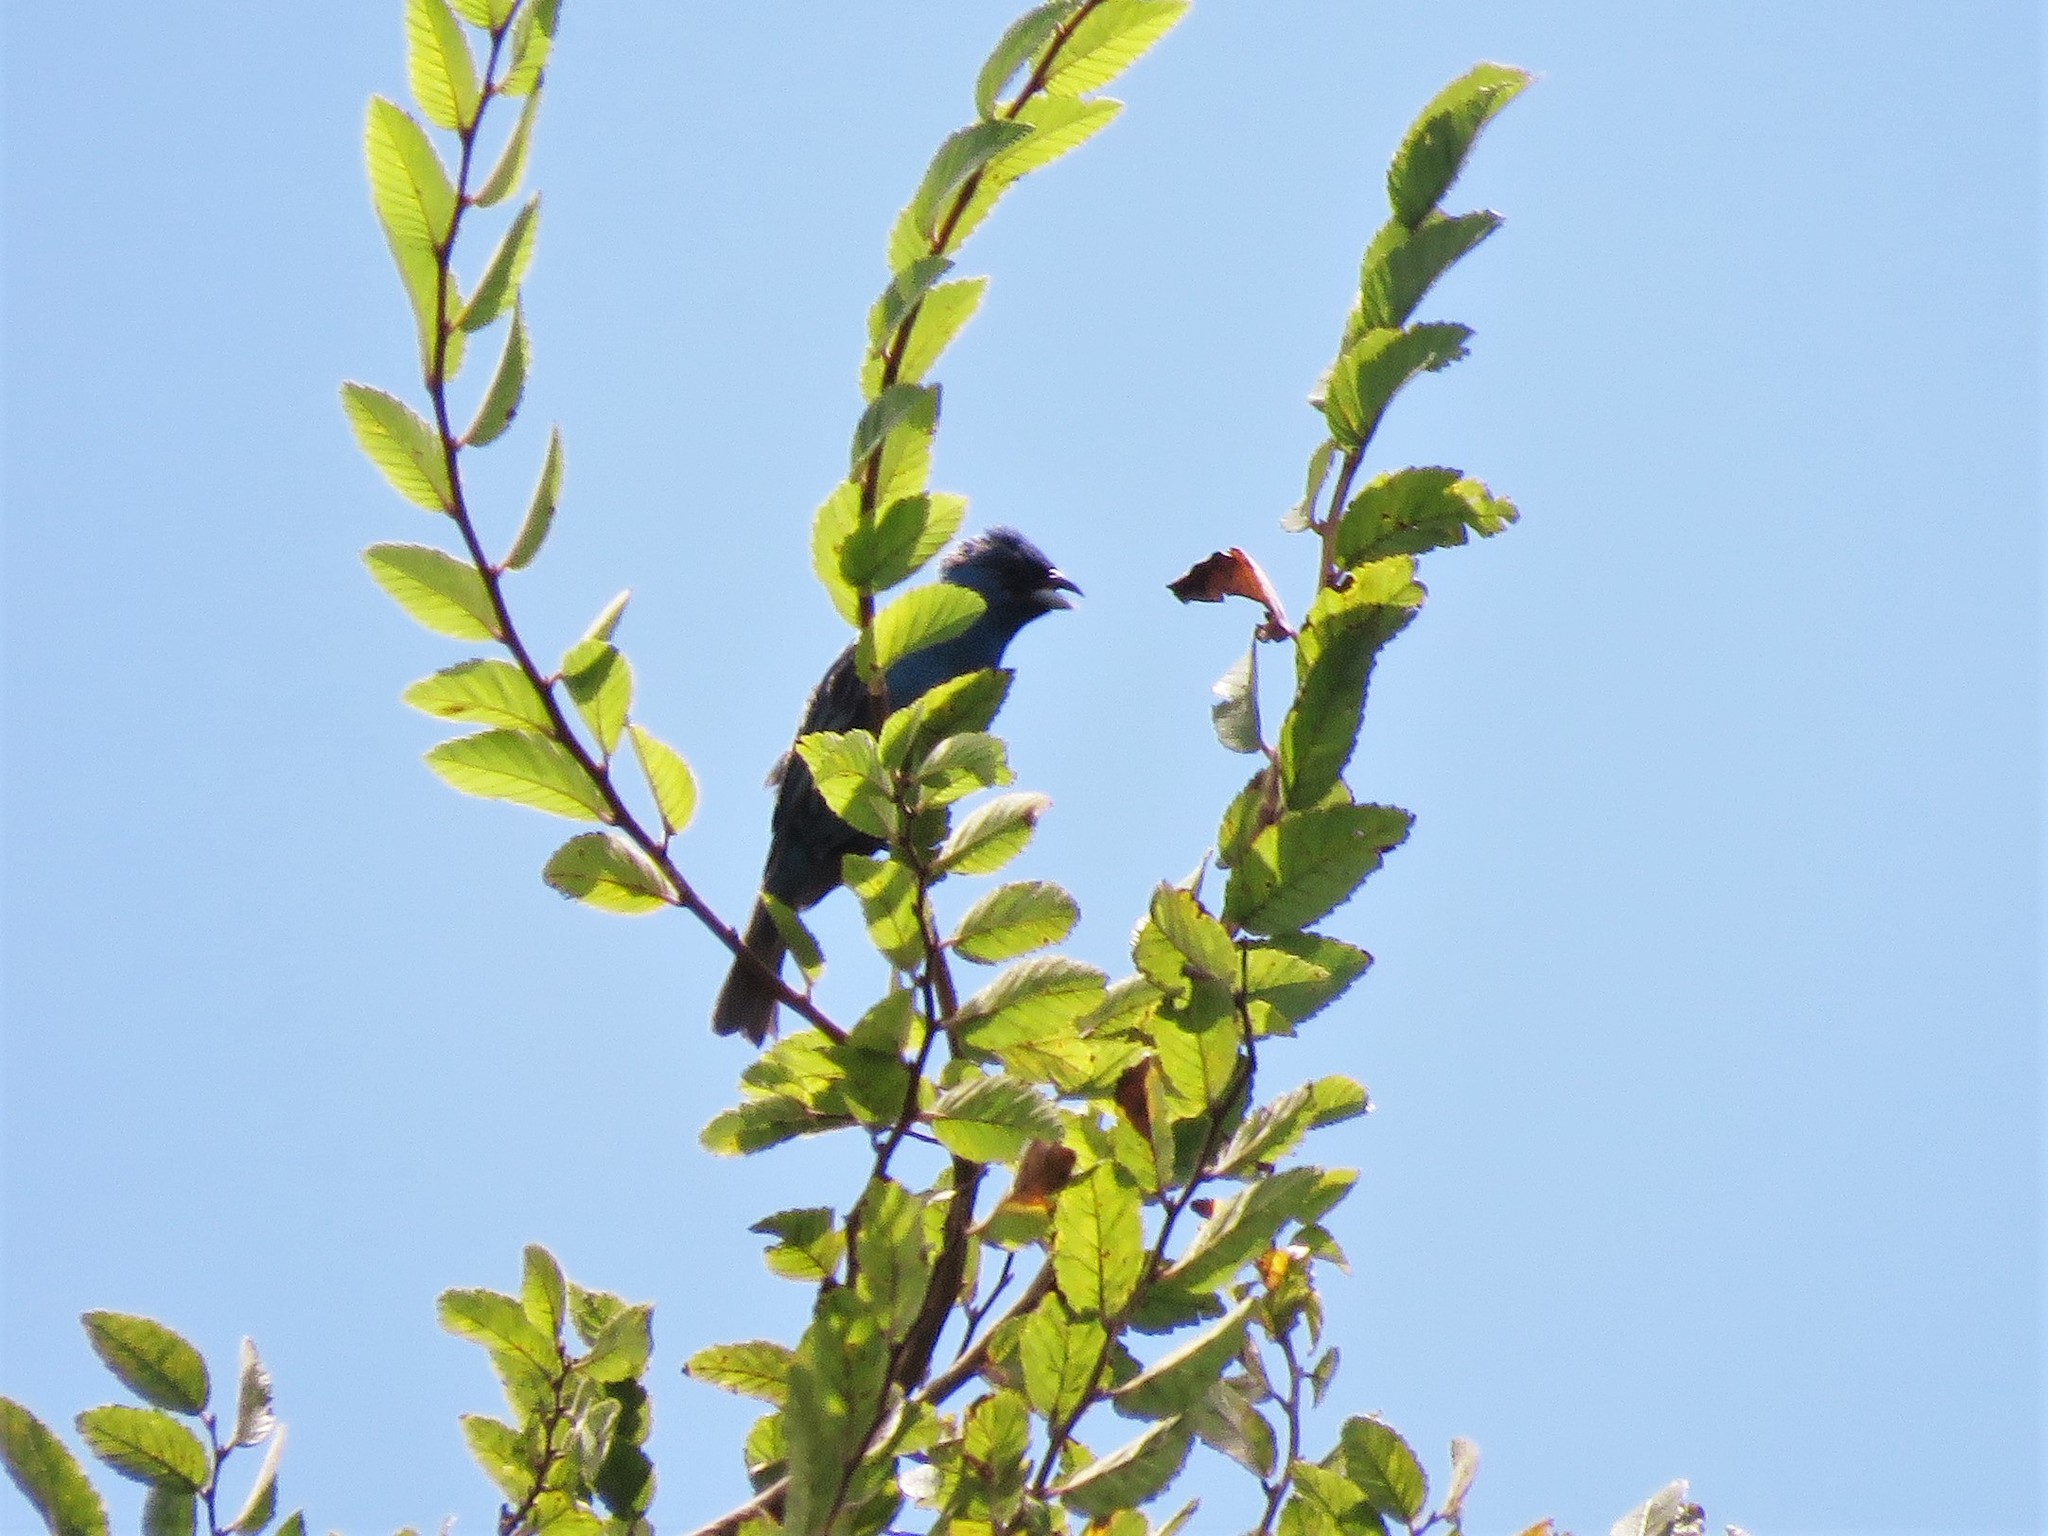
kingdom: Animalia
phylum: Chordata
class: Aves
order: Passeriformes
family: Cardinalidae
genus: Passerina
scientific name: Passerina cyanea
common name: Indigo bunting
